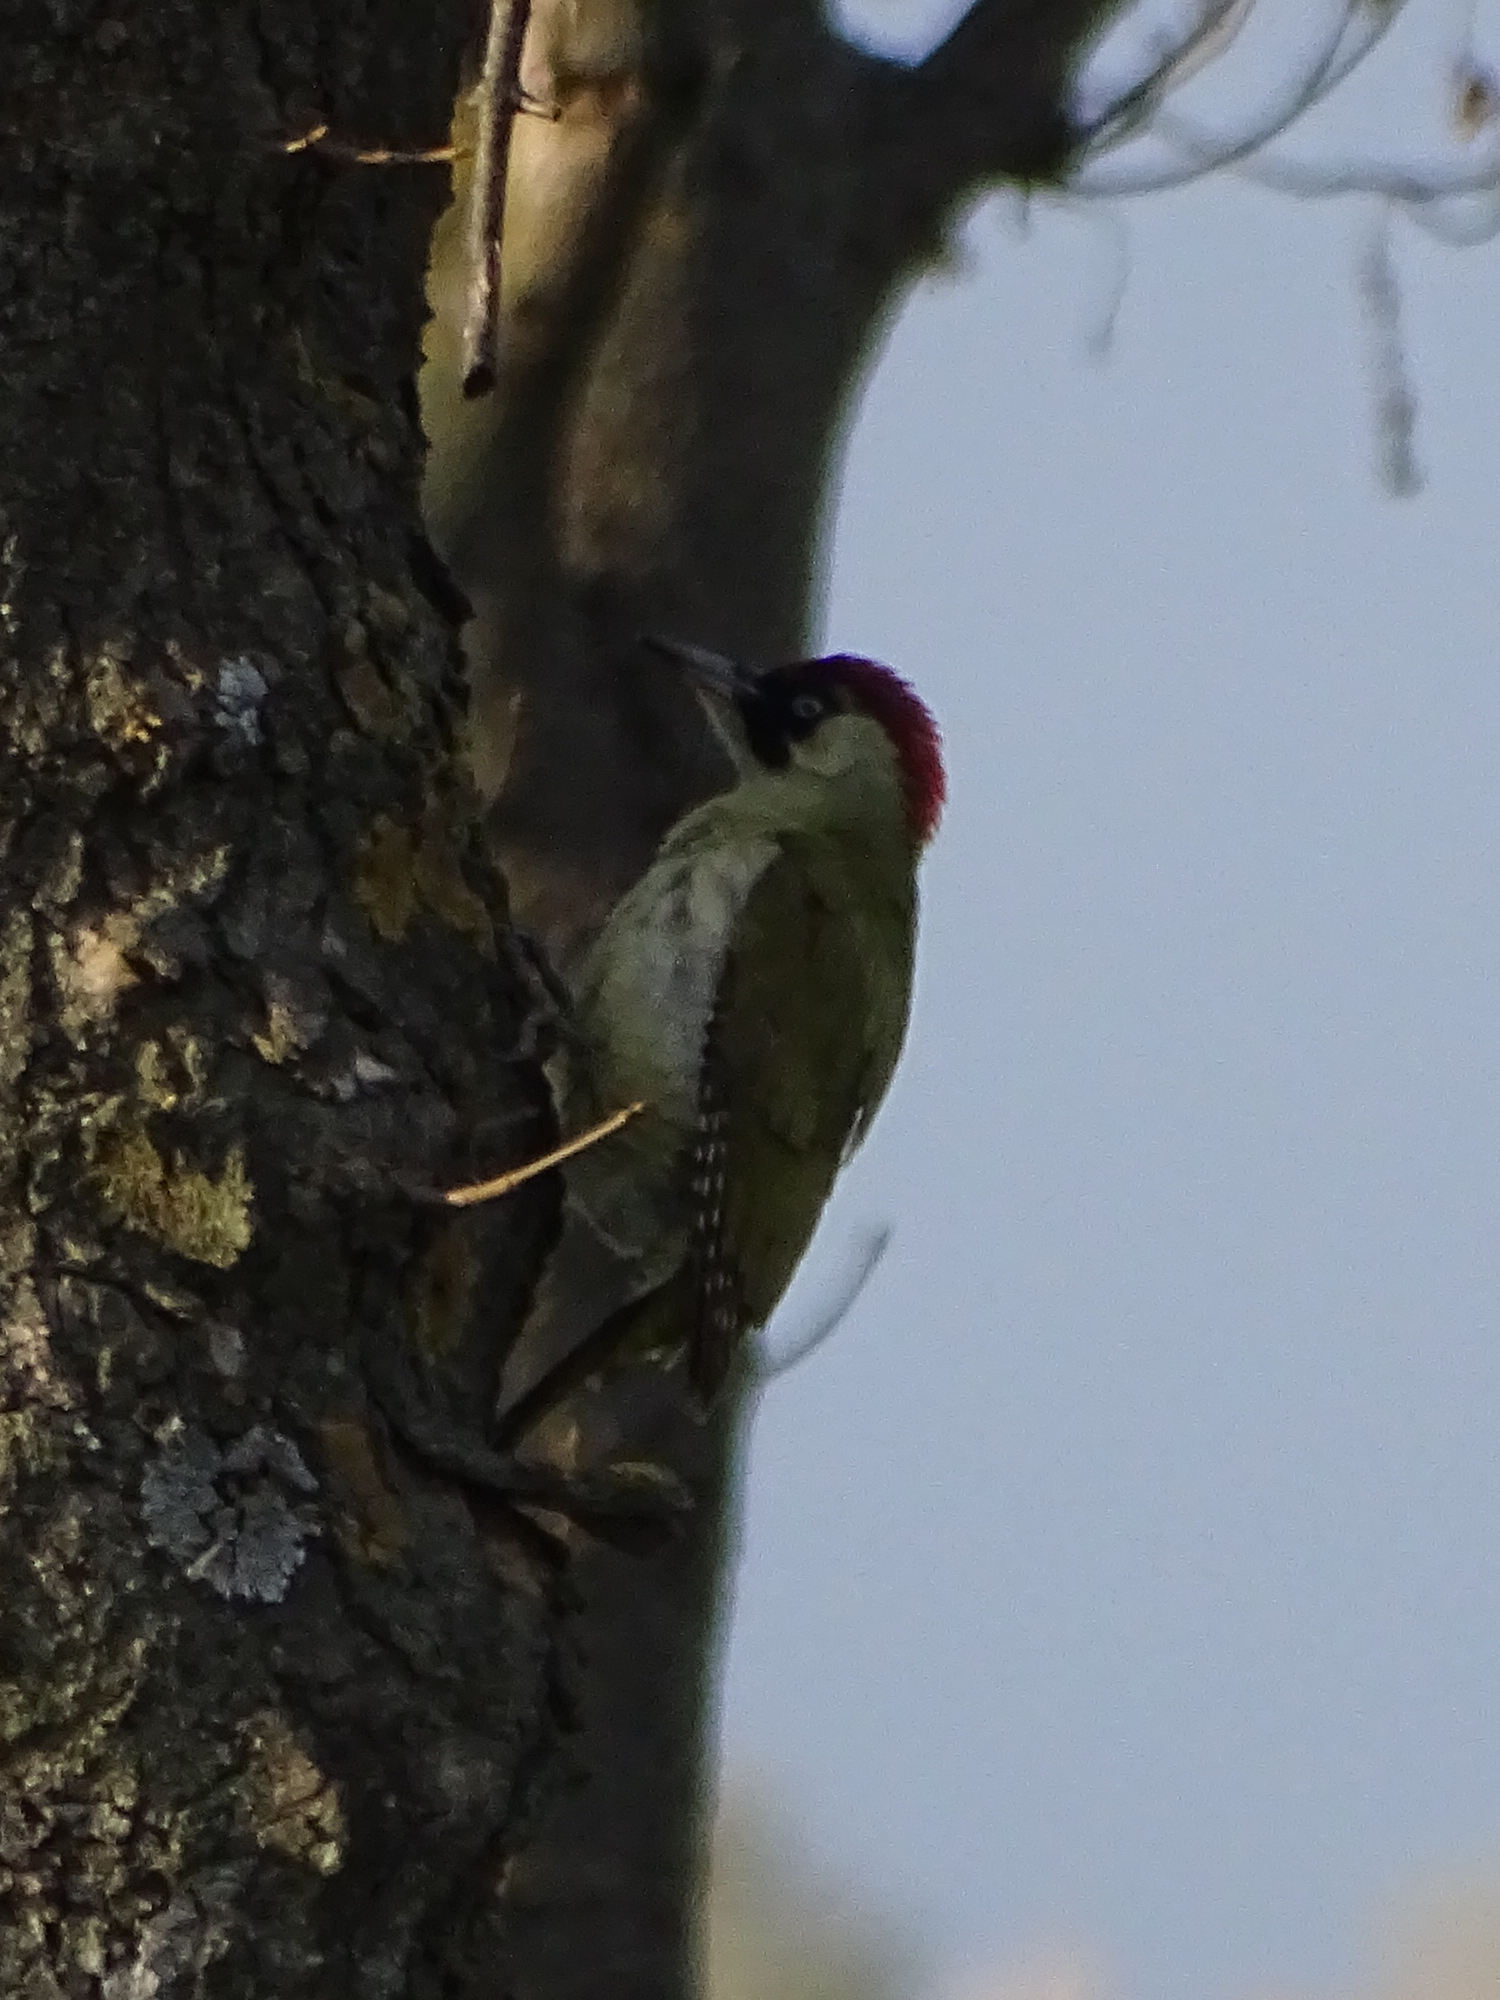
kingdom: Animalia
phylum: Chordata
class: Aves
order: Piciformes
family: Picidae
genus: Picus
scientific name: Picus viridis
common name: European green woodpecker
